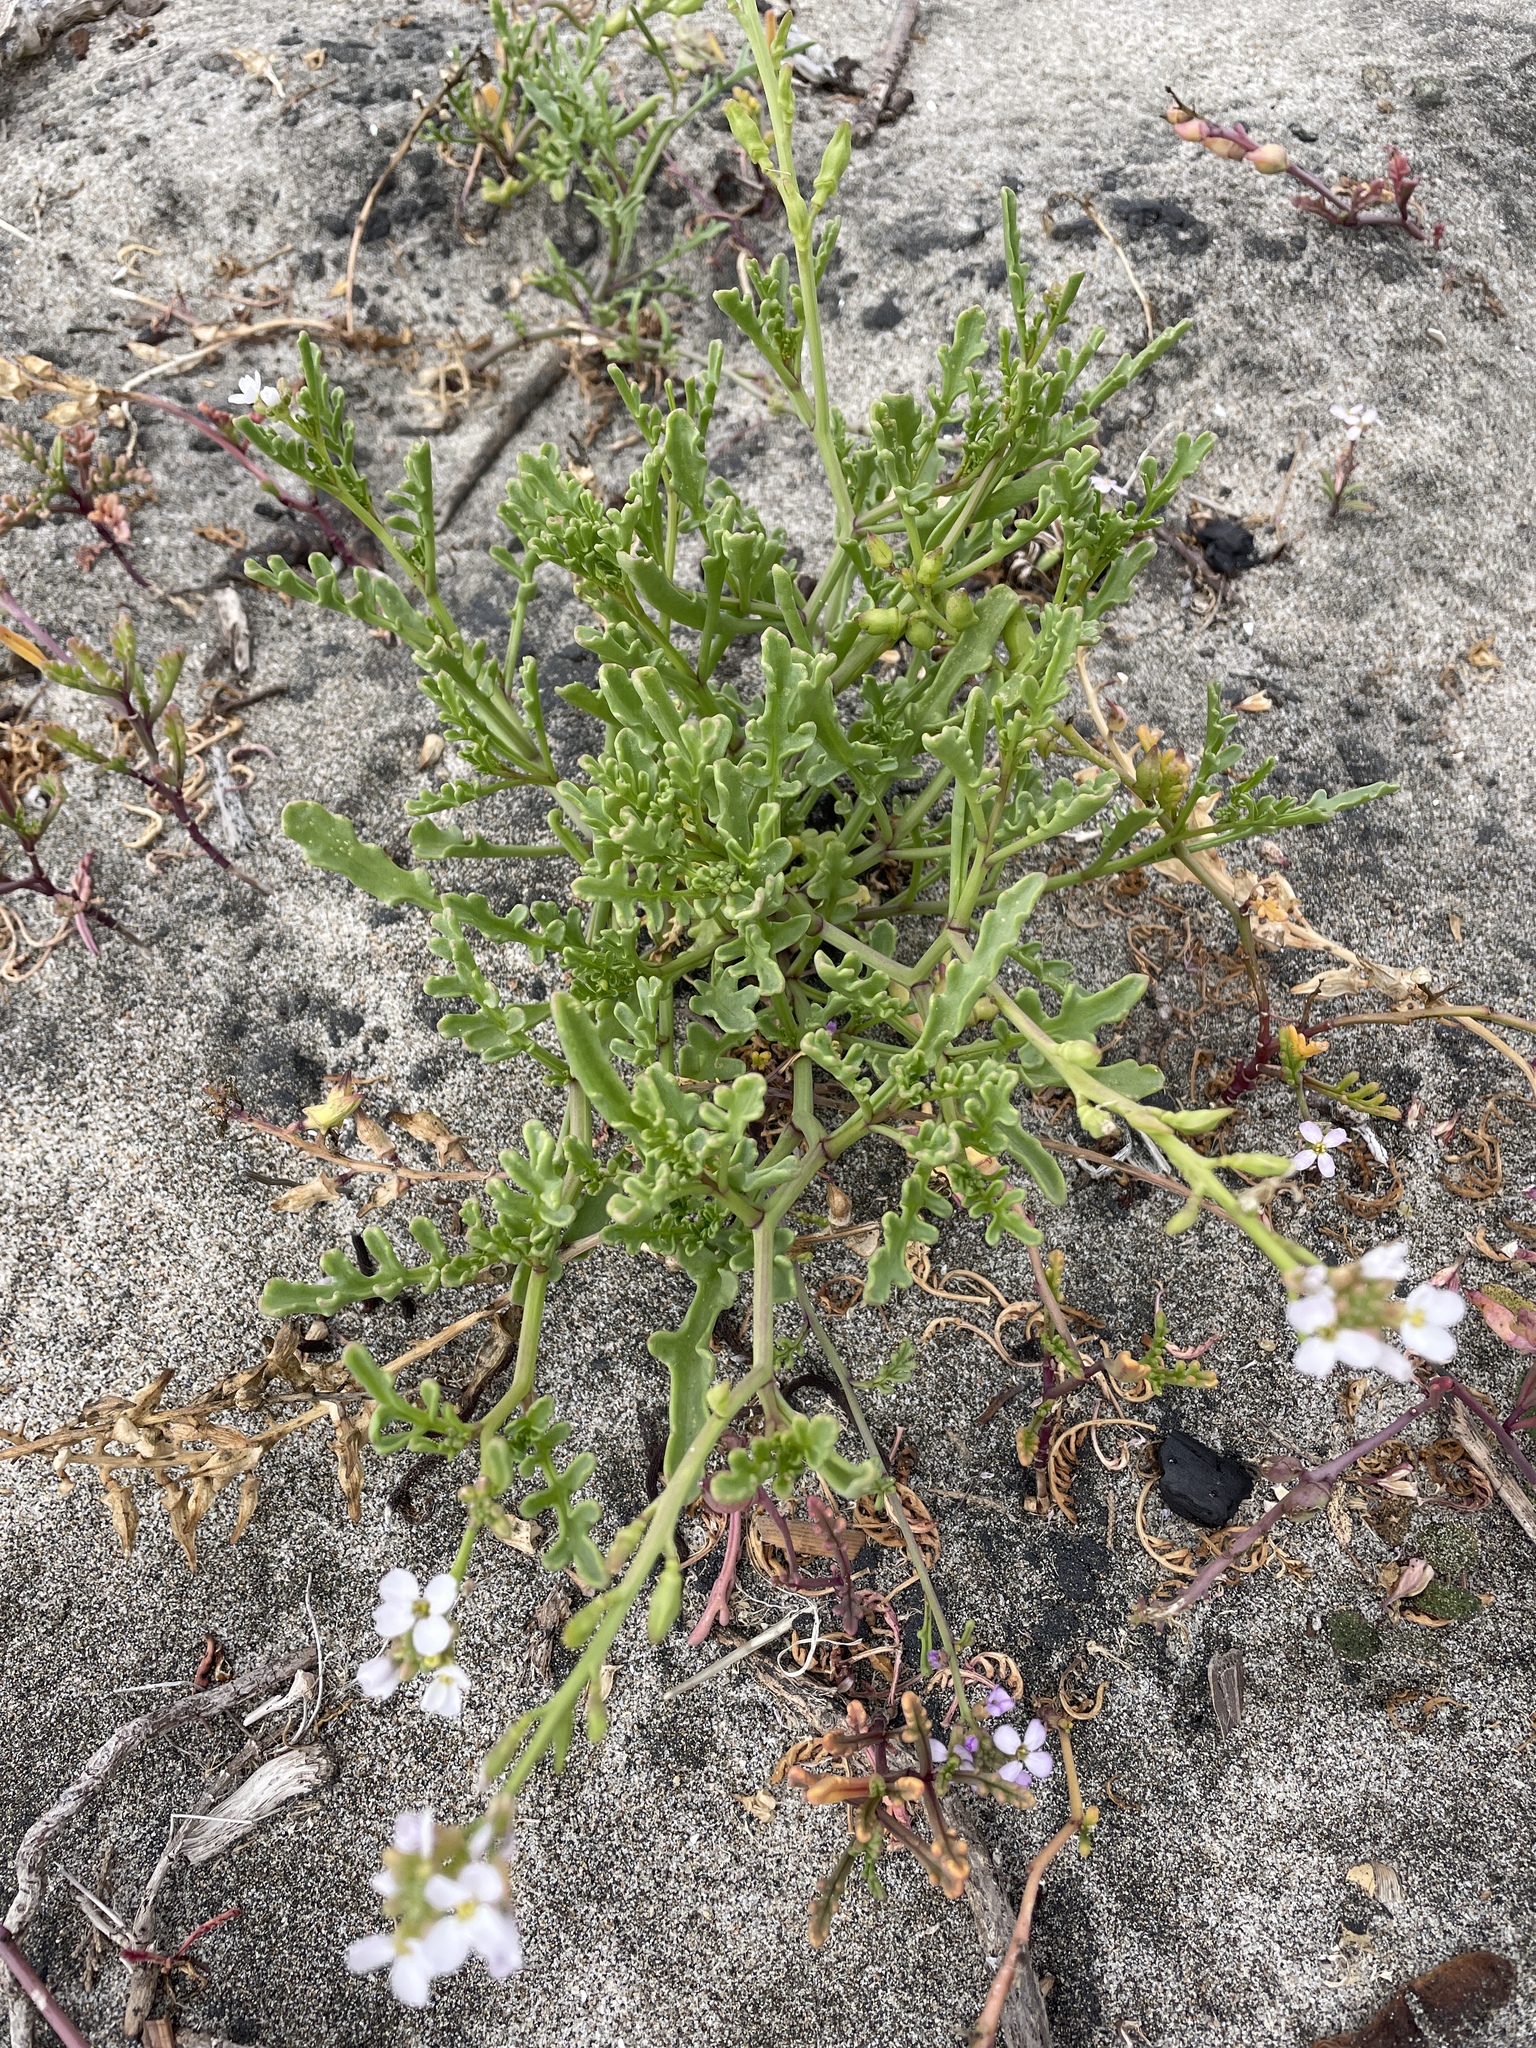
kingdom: Plantae
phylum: Tracheophyta
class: Magnoliopsida
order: Brassicales
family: Brassicaceae
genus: Cakile
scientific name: Cakile maritima
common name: Sea rocket
